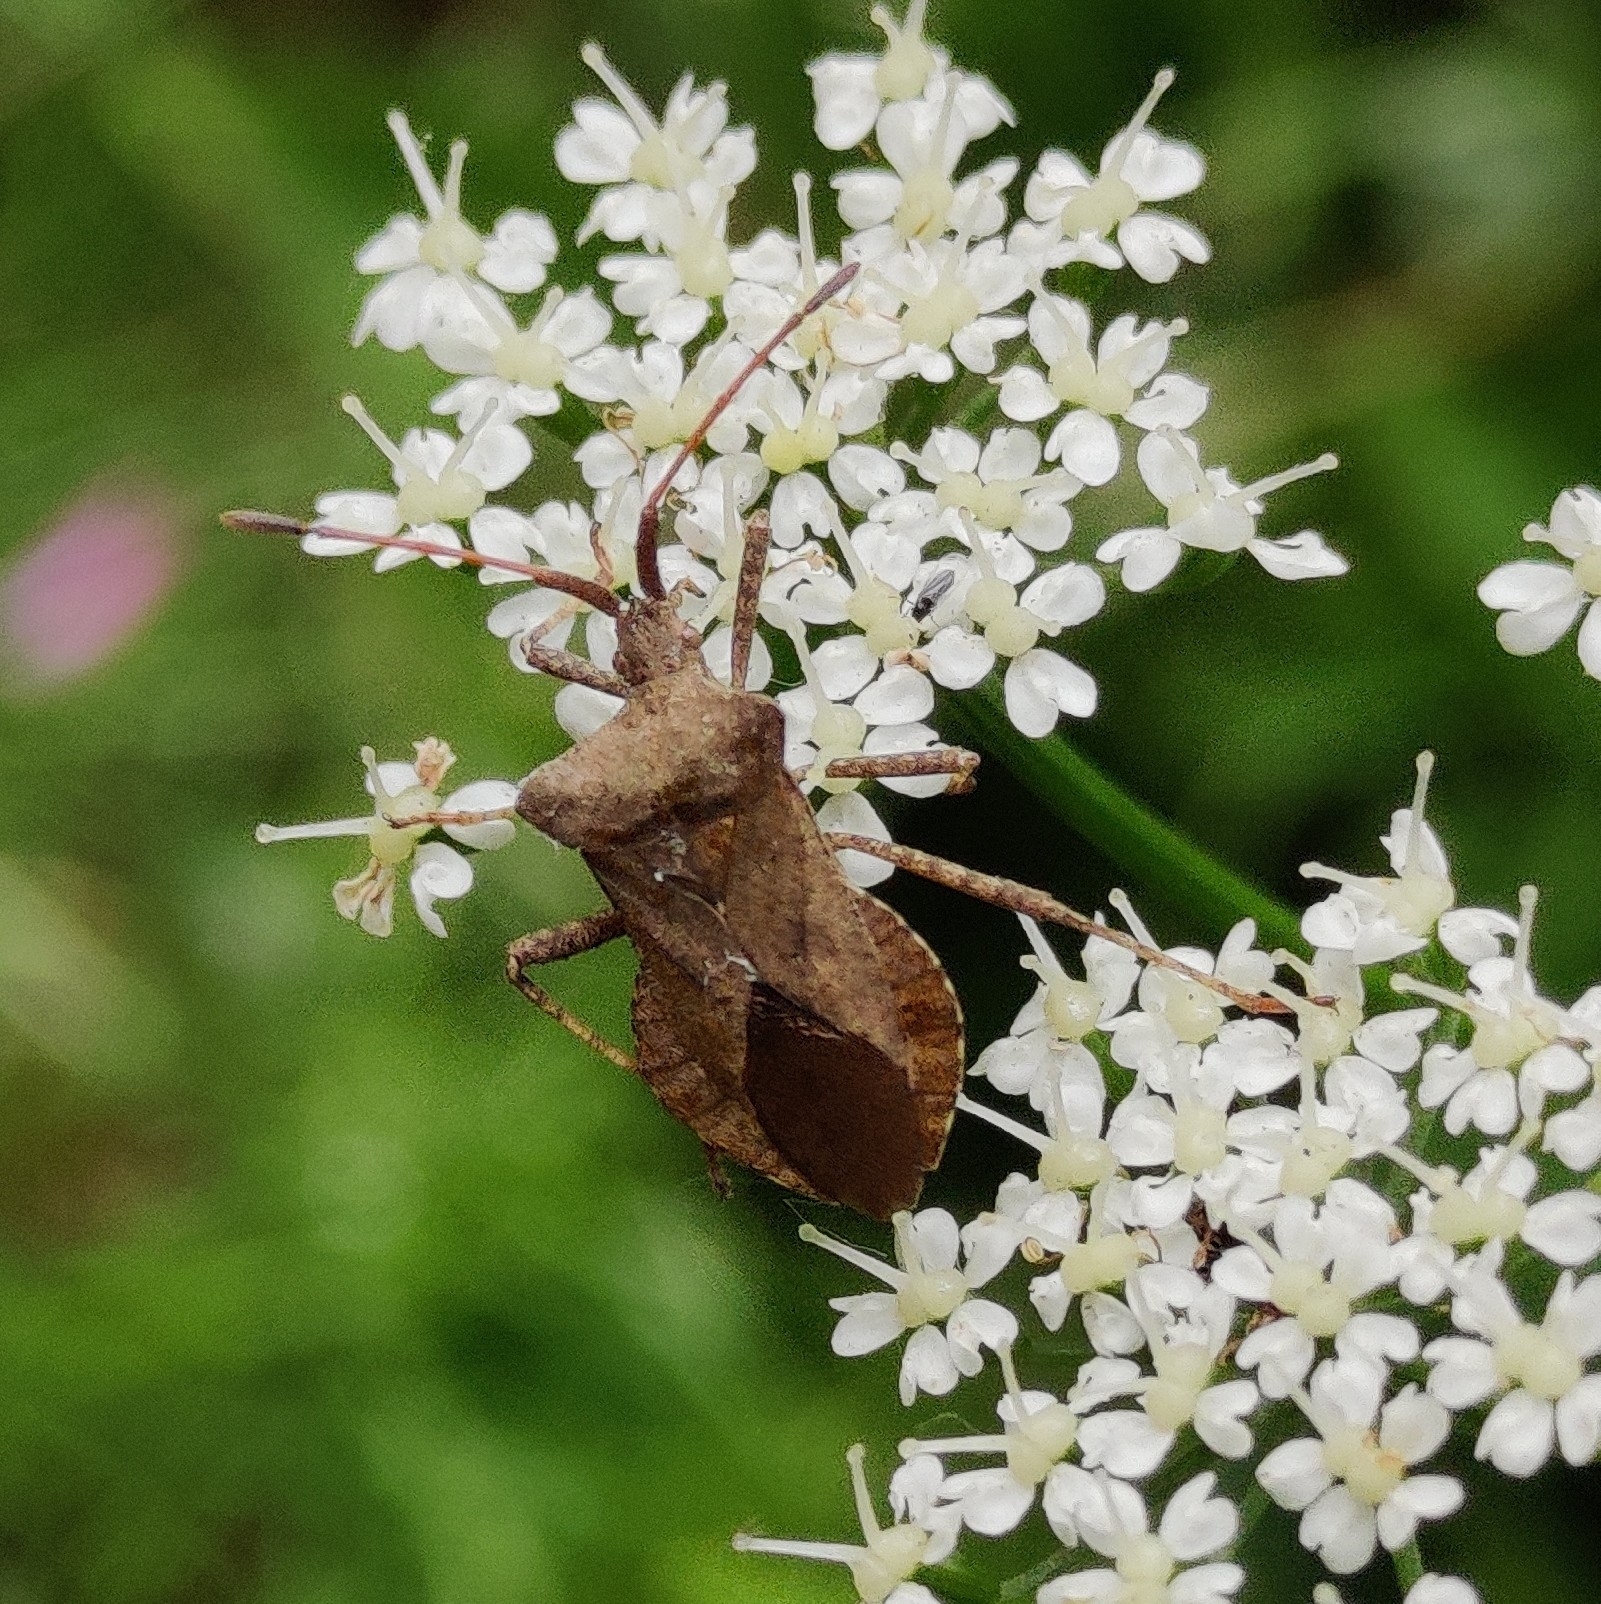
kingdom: Animalia
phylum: Arthropoda
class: Insecta
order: Hemiptera
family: Coreidae
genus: Coreus
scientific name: Coreus marginatus
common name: Dock bug
